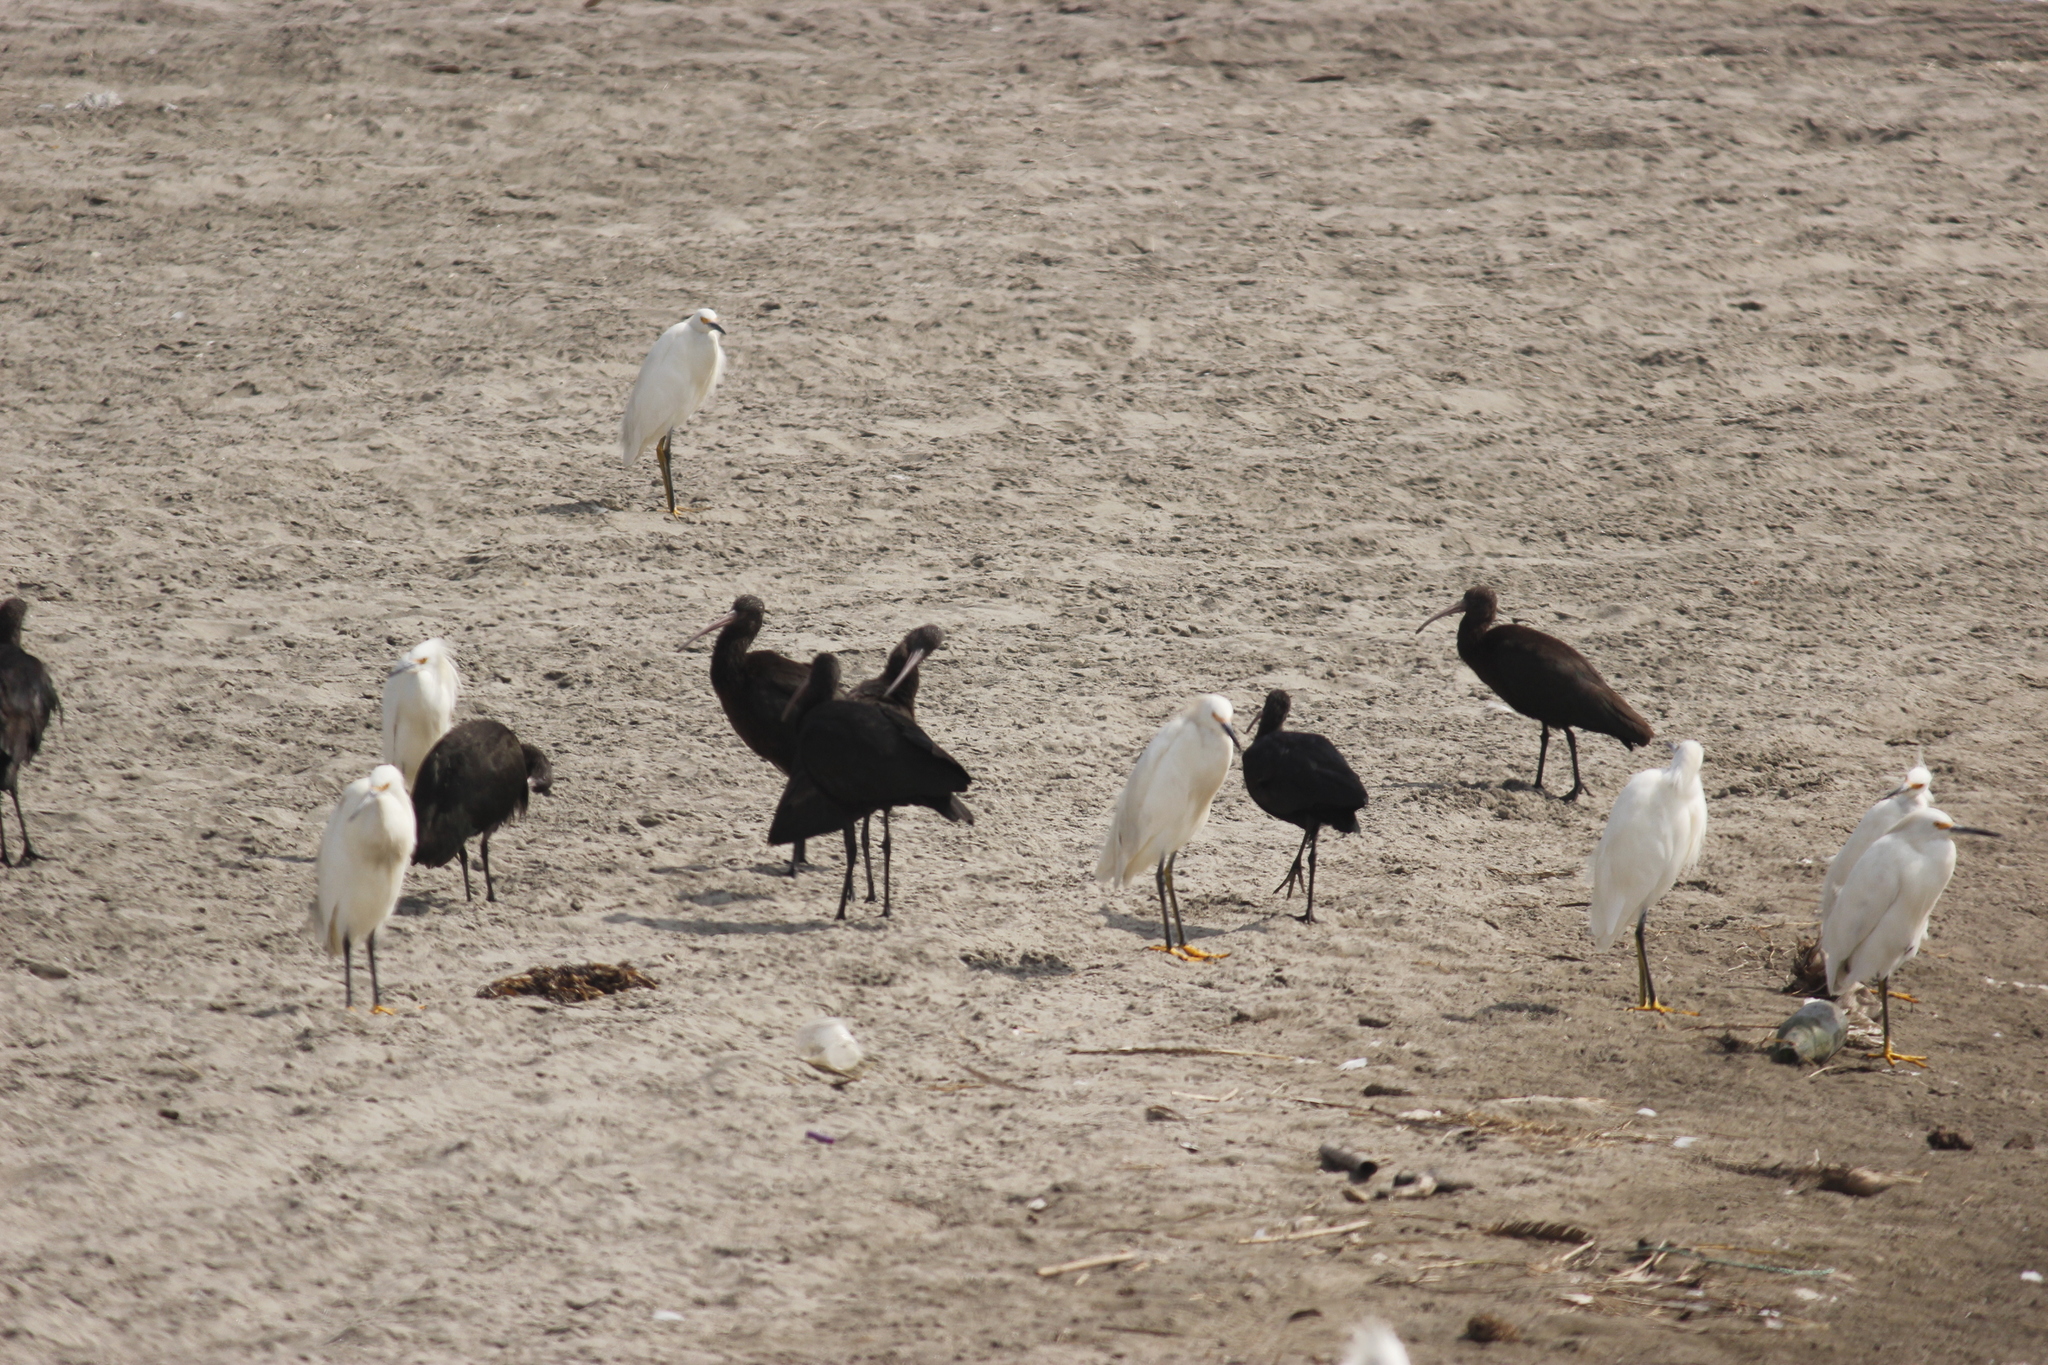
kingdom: Animalia
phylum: Chordata
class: Aves
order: Pelecaniformes
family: Threskiornithidae
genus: Plegadis
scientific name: Plegadis ridgwayi
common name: Puna ibis
